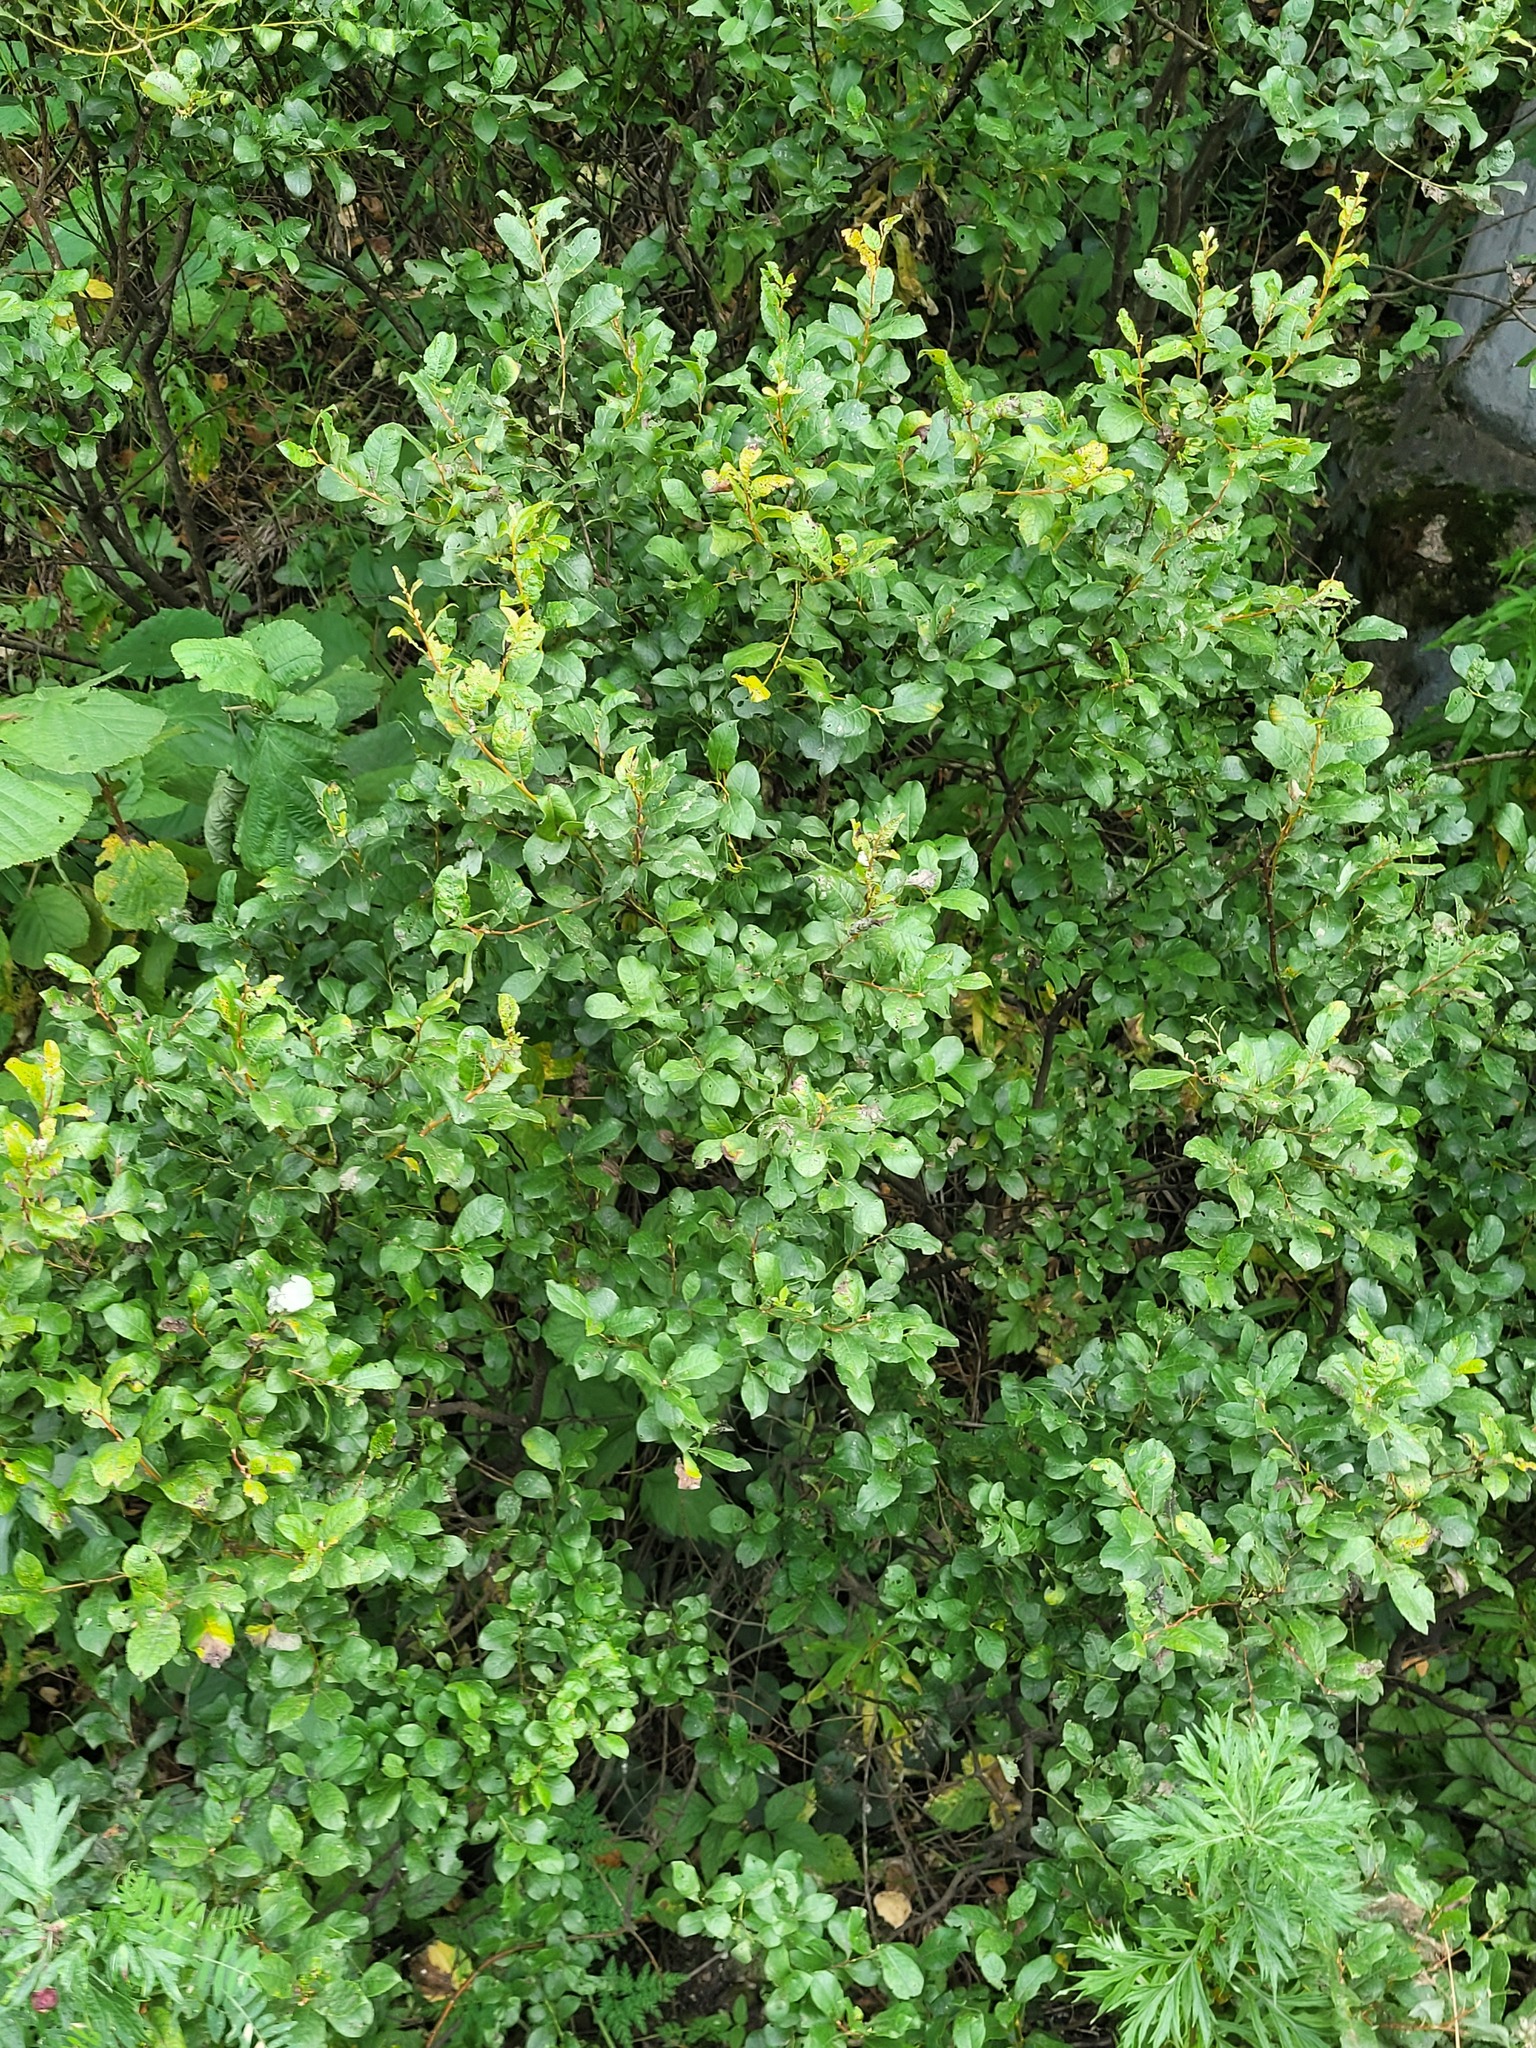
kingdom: Plantae
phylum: Tracheophyta
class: Magnoliopsida
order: Malpighiales
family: Salicaceae
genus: Salix
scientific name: Salix myrsinifolia
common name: Dark-leaved willow
